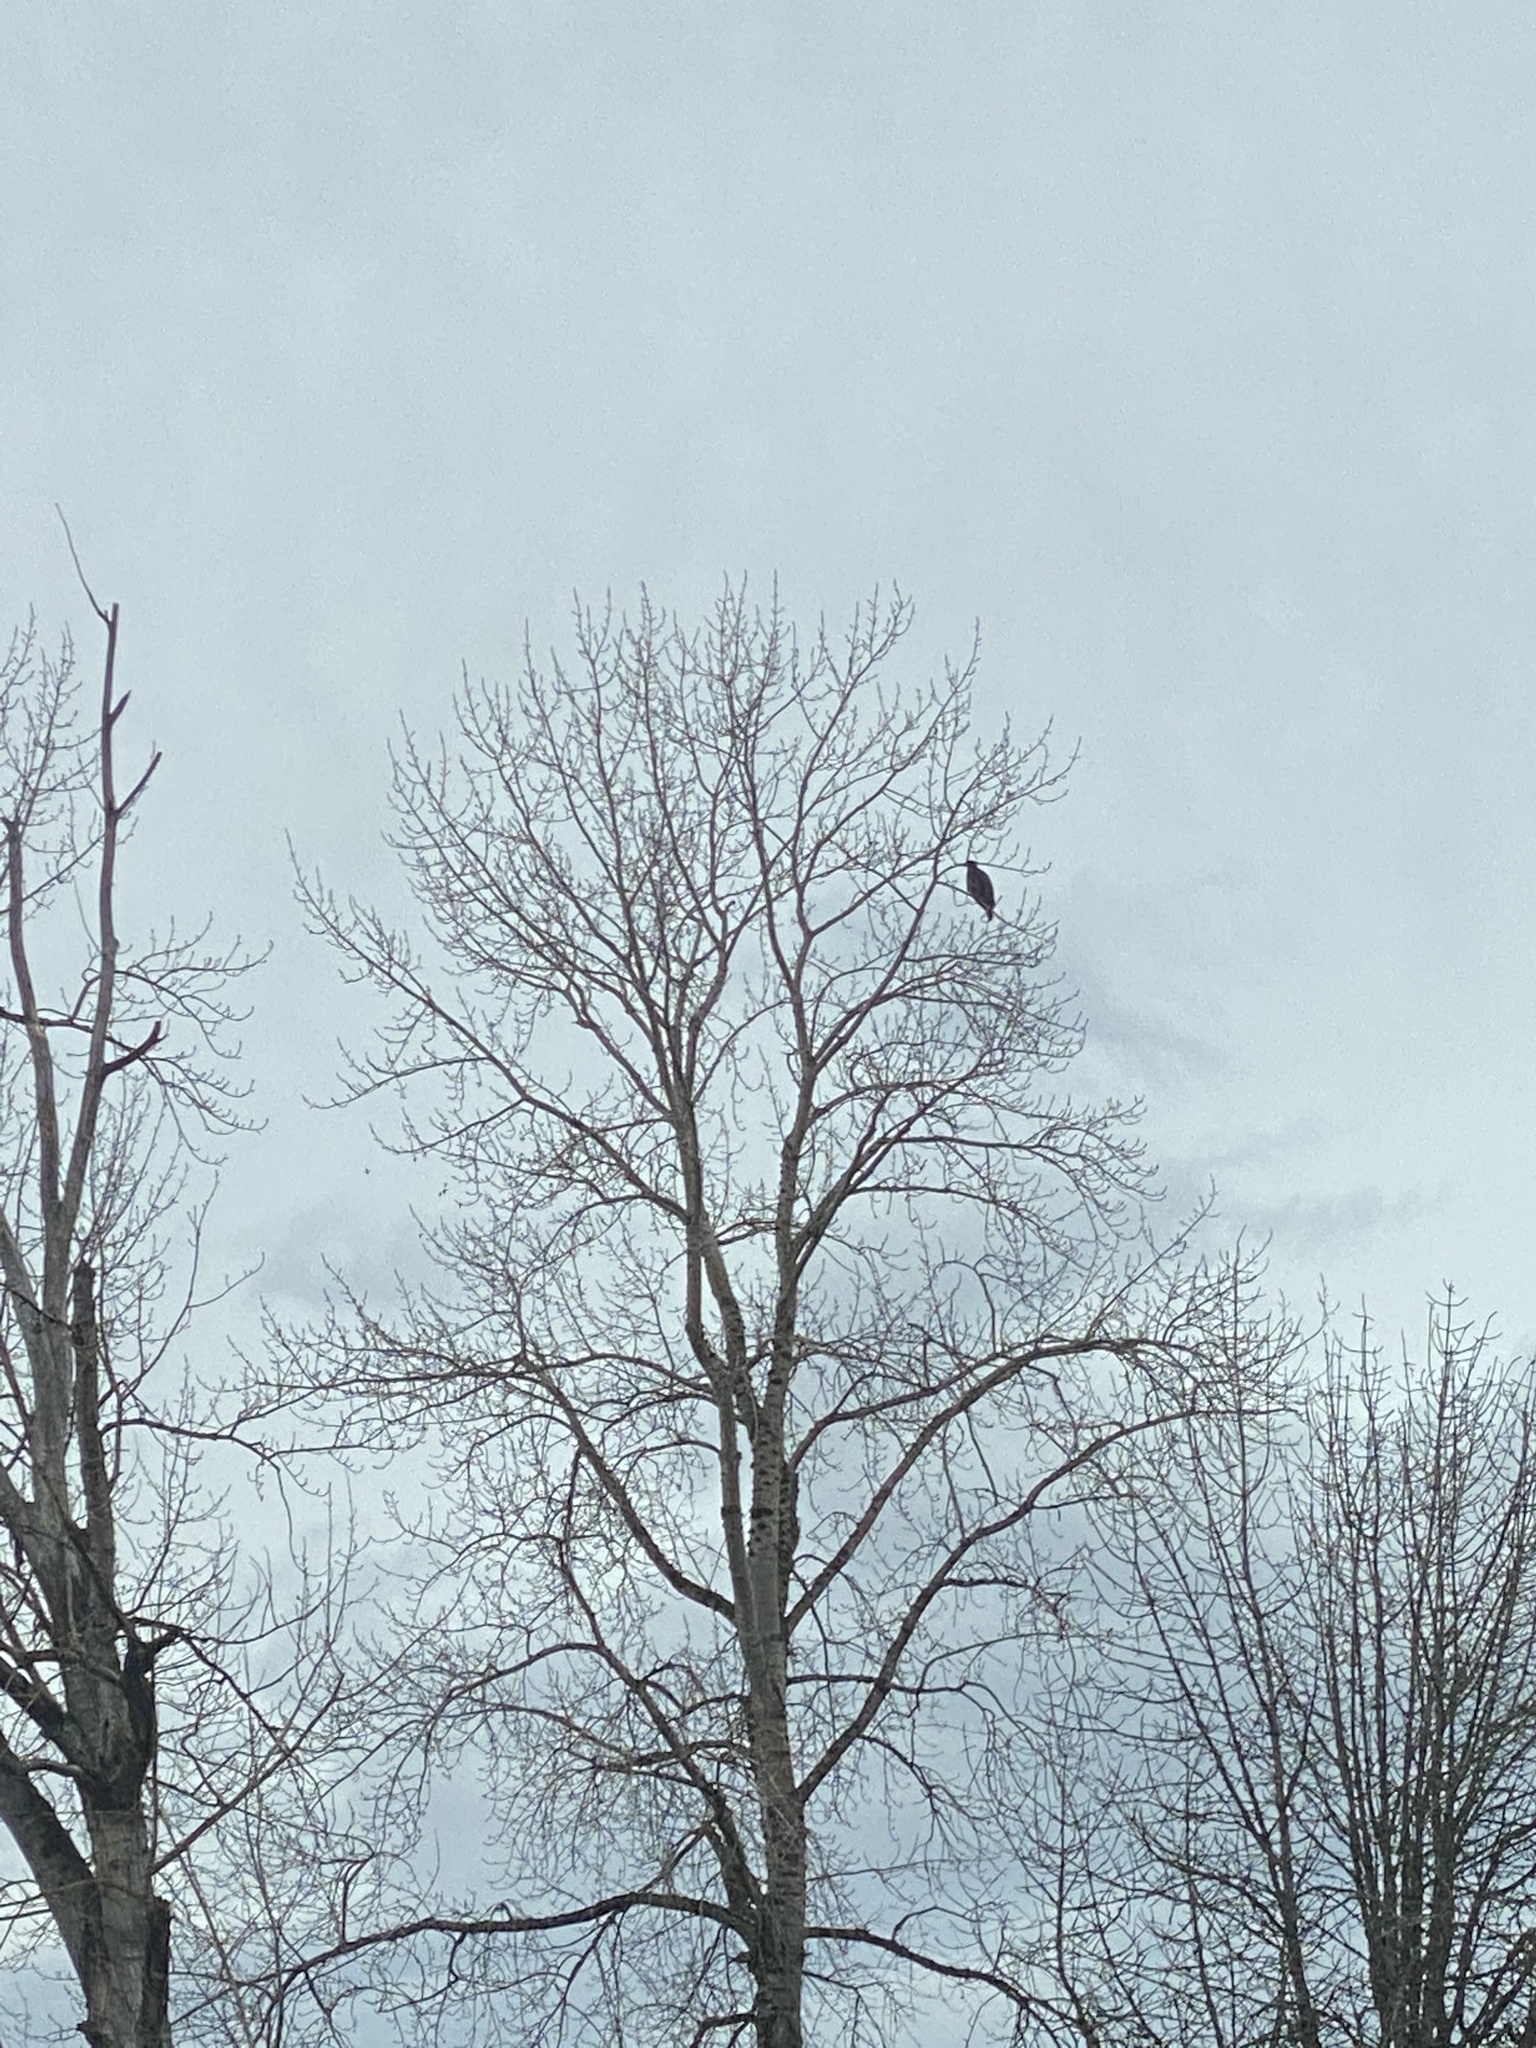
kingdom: Animalia
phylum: Chordata
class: Aves
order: Accipitriformes
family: Accipitridae
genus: Haliaeetus
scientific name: Haliaeetus leucocephalus
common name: Bald eagle
